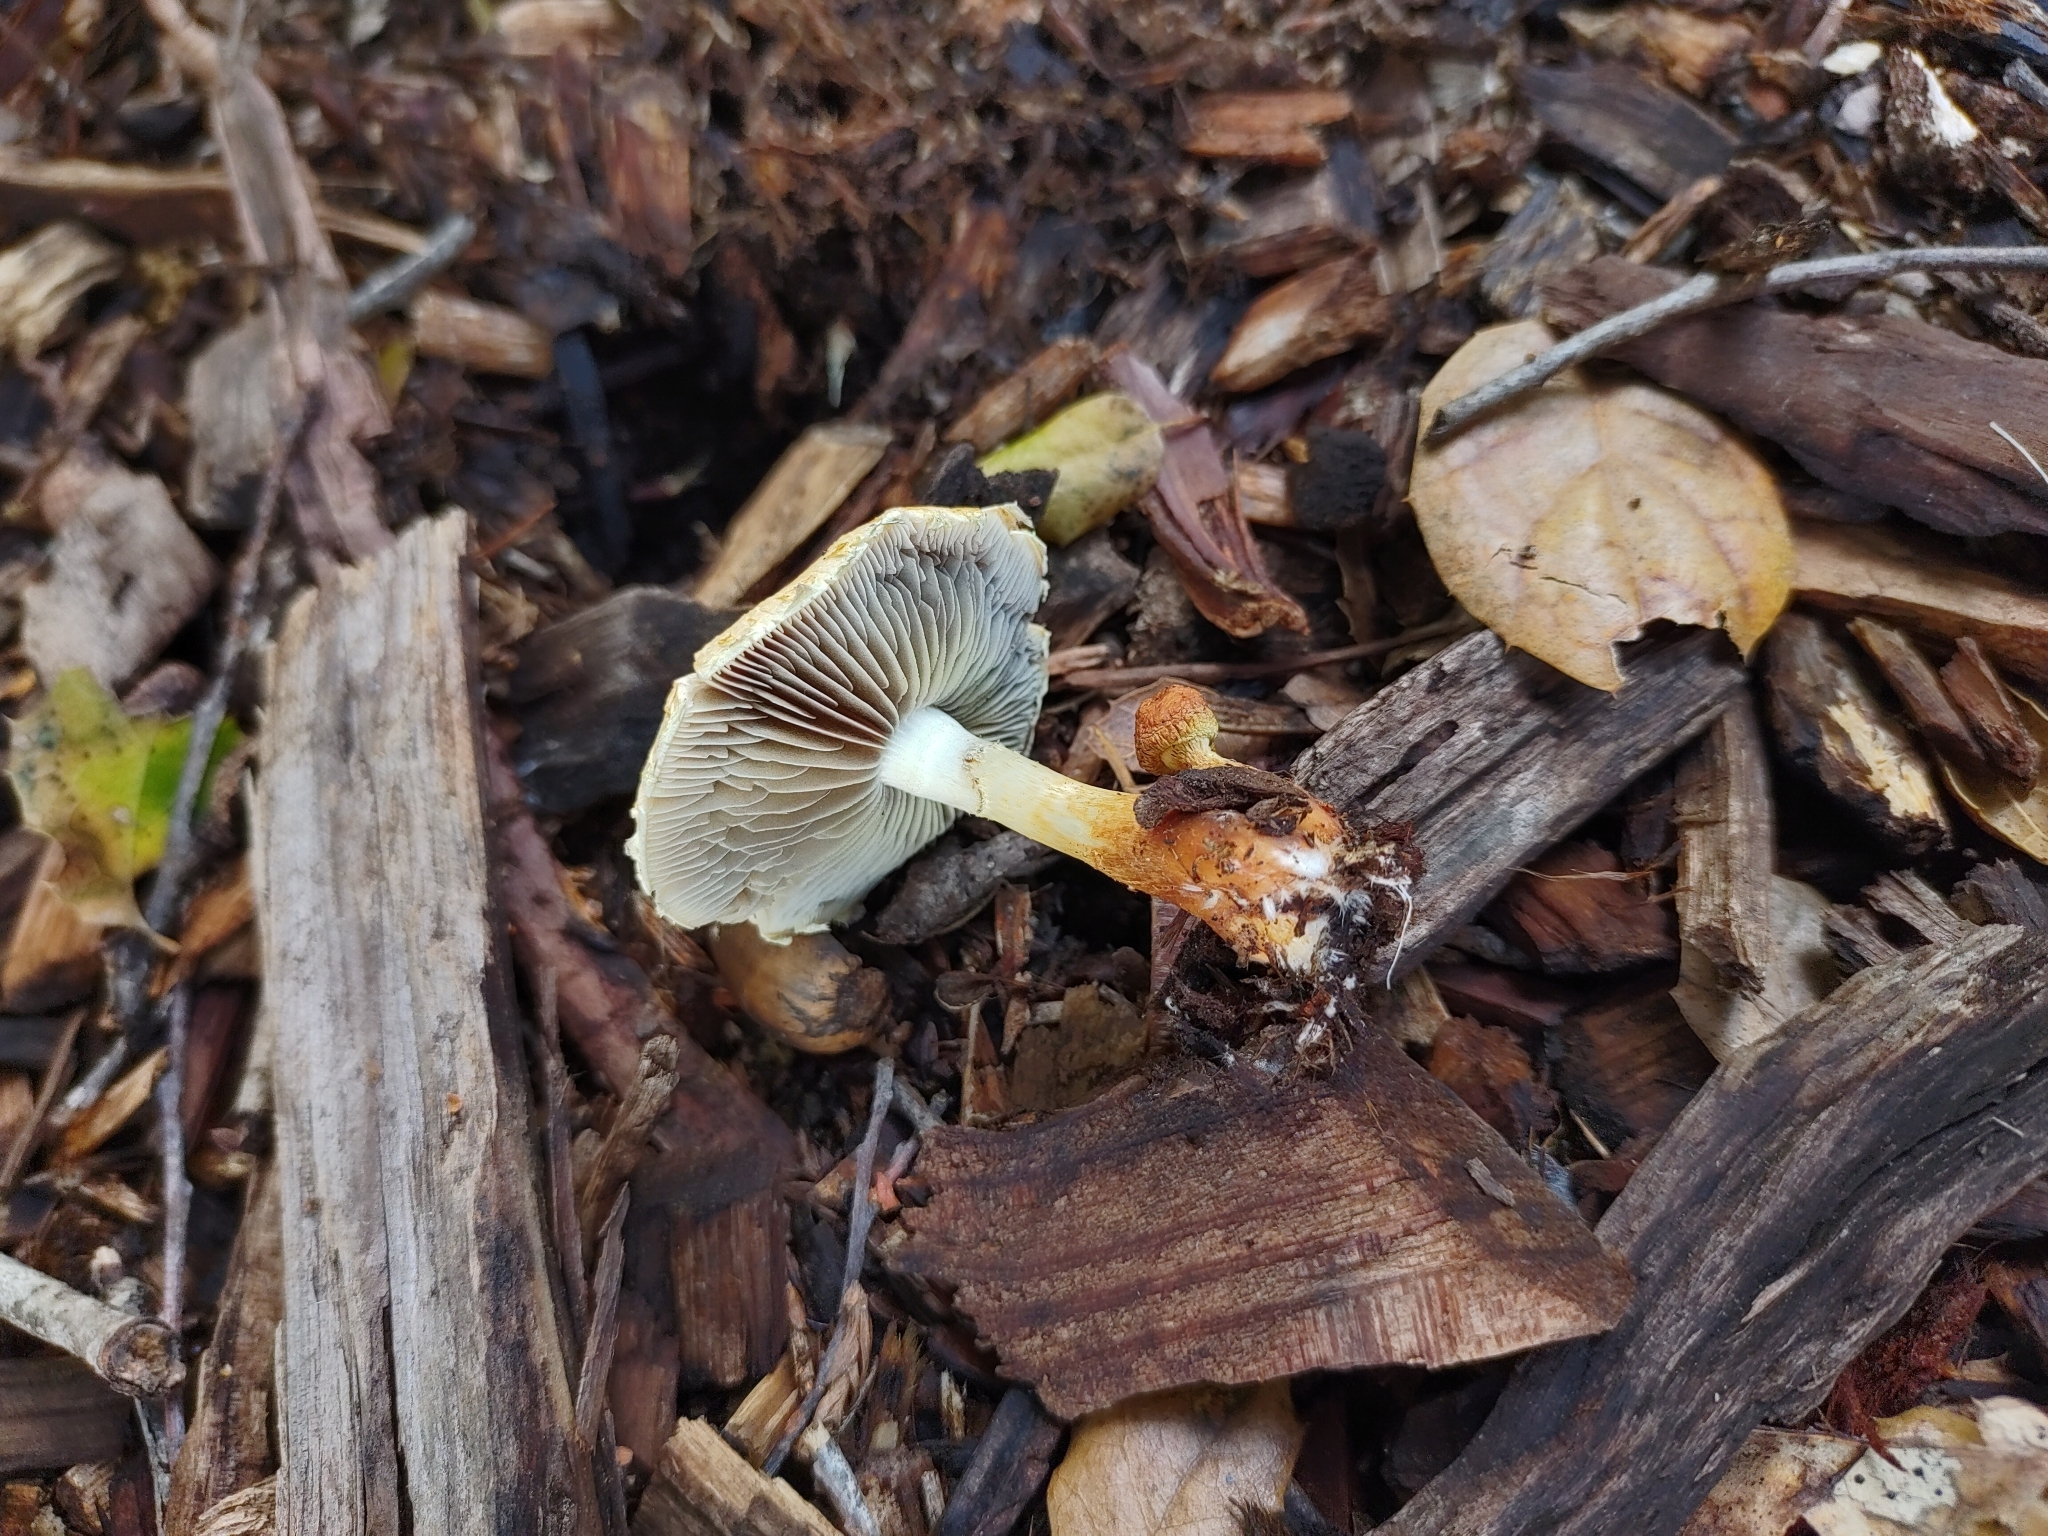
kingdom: Fungi
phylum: Basidiomycota
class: Agaricomycetes
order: Agaricales
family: Strophariaceae
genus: Leratiomyces
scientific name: Leratiomyces percevalii
